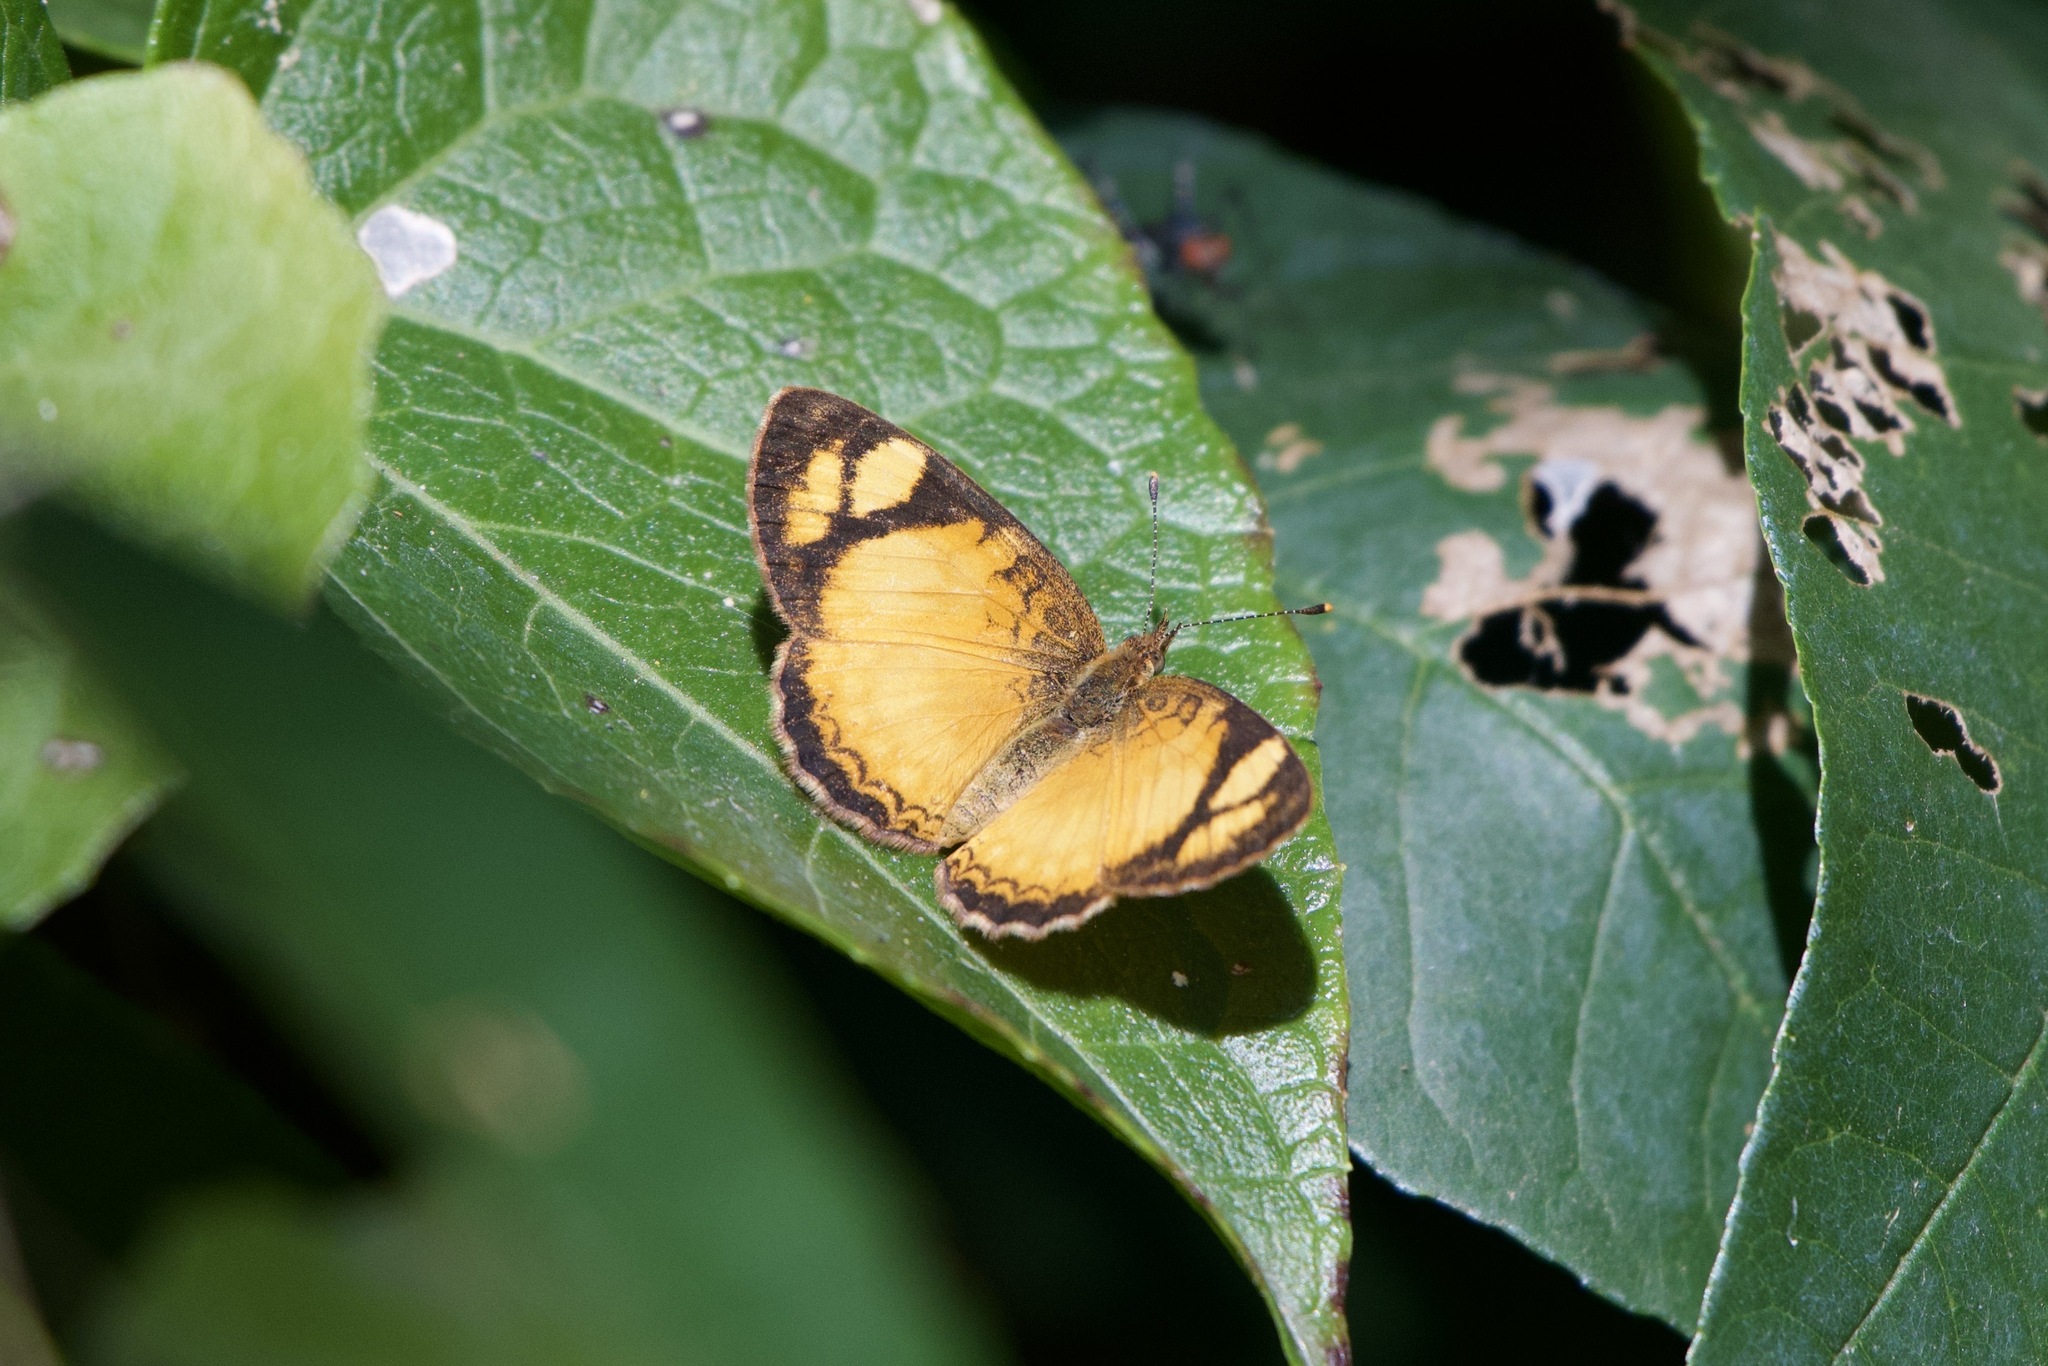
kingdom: Animalia
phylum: Arthropoda
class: Insecta
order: Lepidoptera
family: Nymphalidae
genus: Tegosa
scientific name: Tegosa claudina
